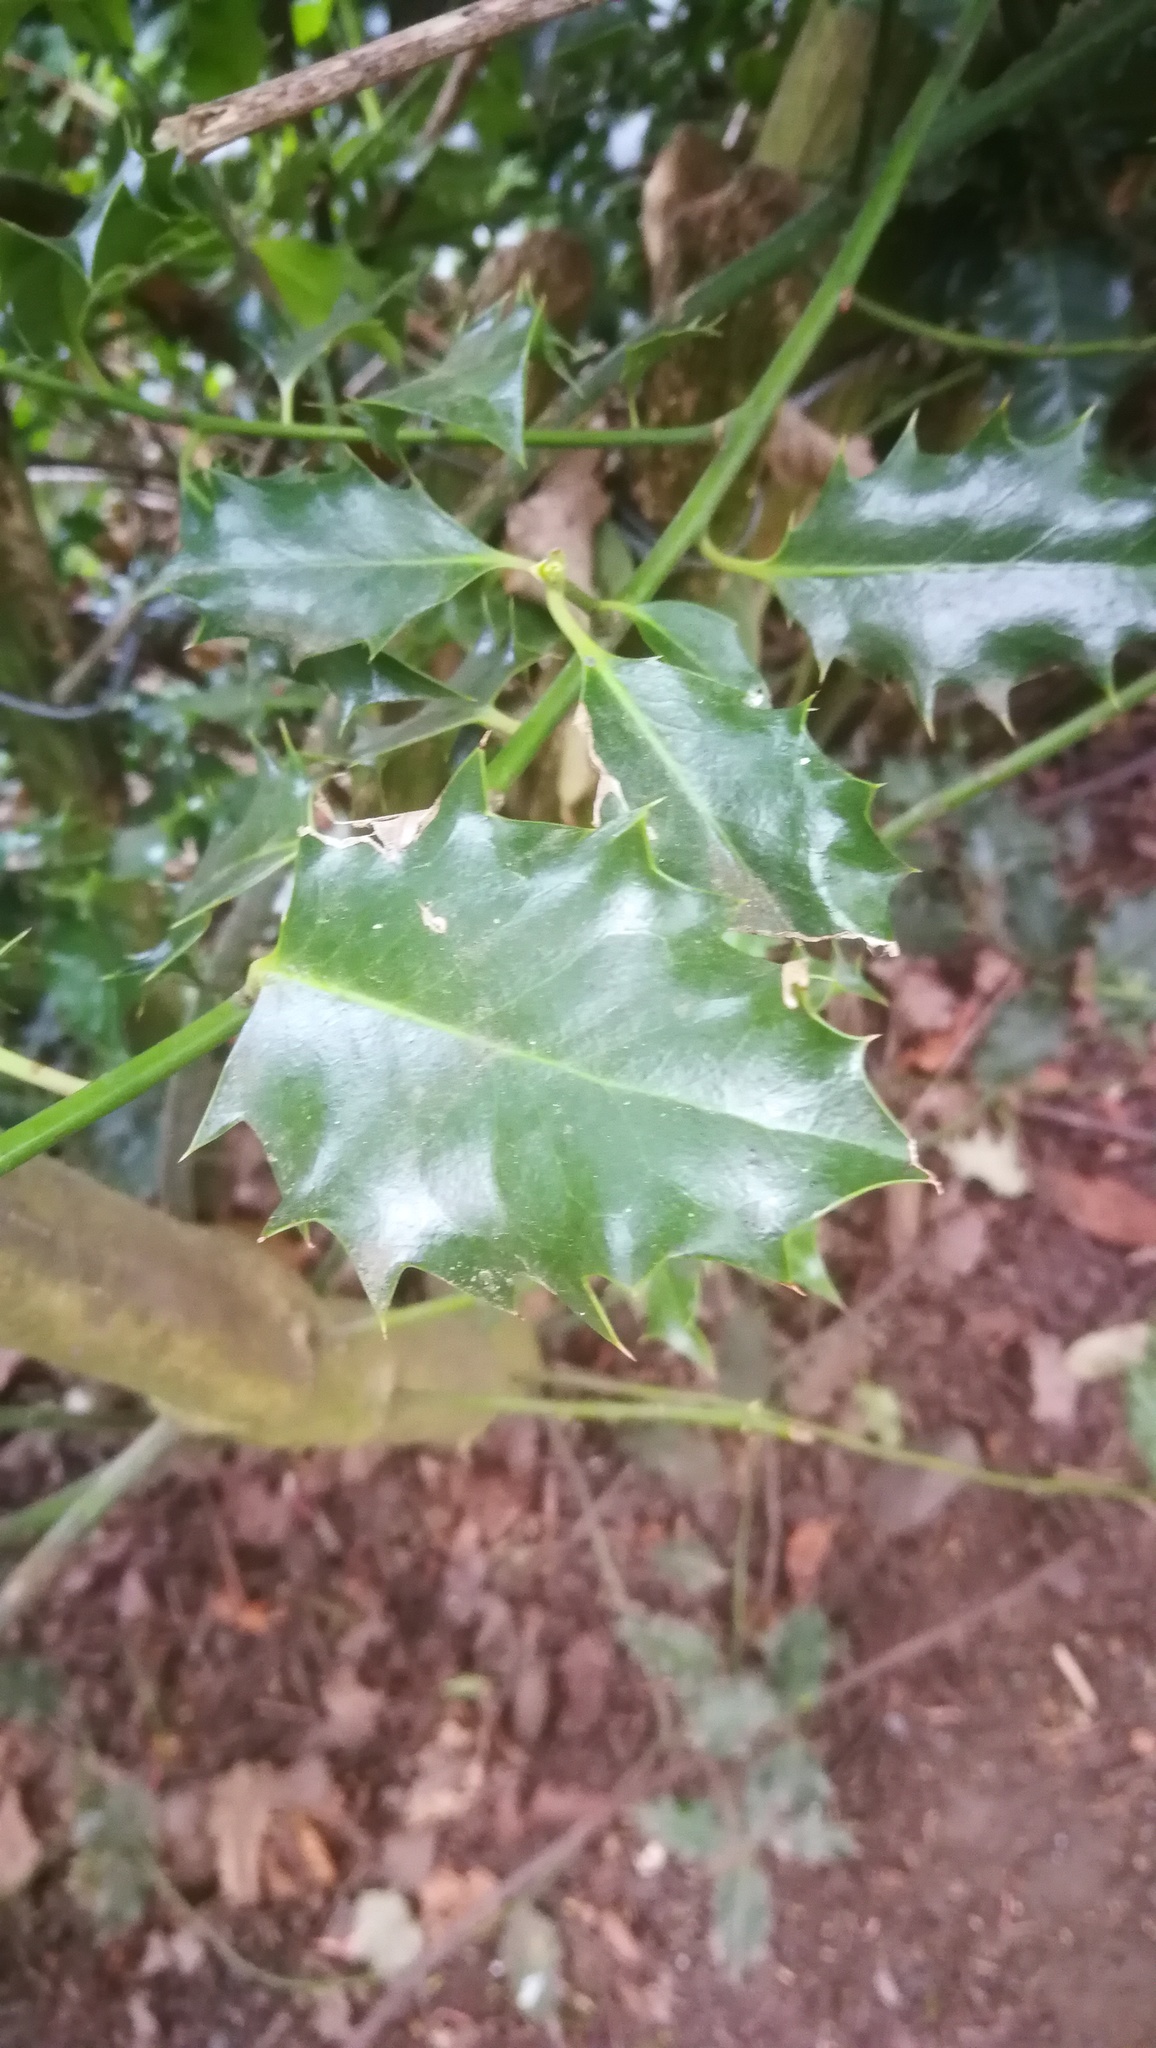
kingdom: Plantae
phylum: Tracheophyta
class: Magnoliopsida
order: Aquifoliales
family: Aquifoliaceae
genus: Ilex
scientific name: Ilex aquifolium
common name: English holly
